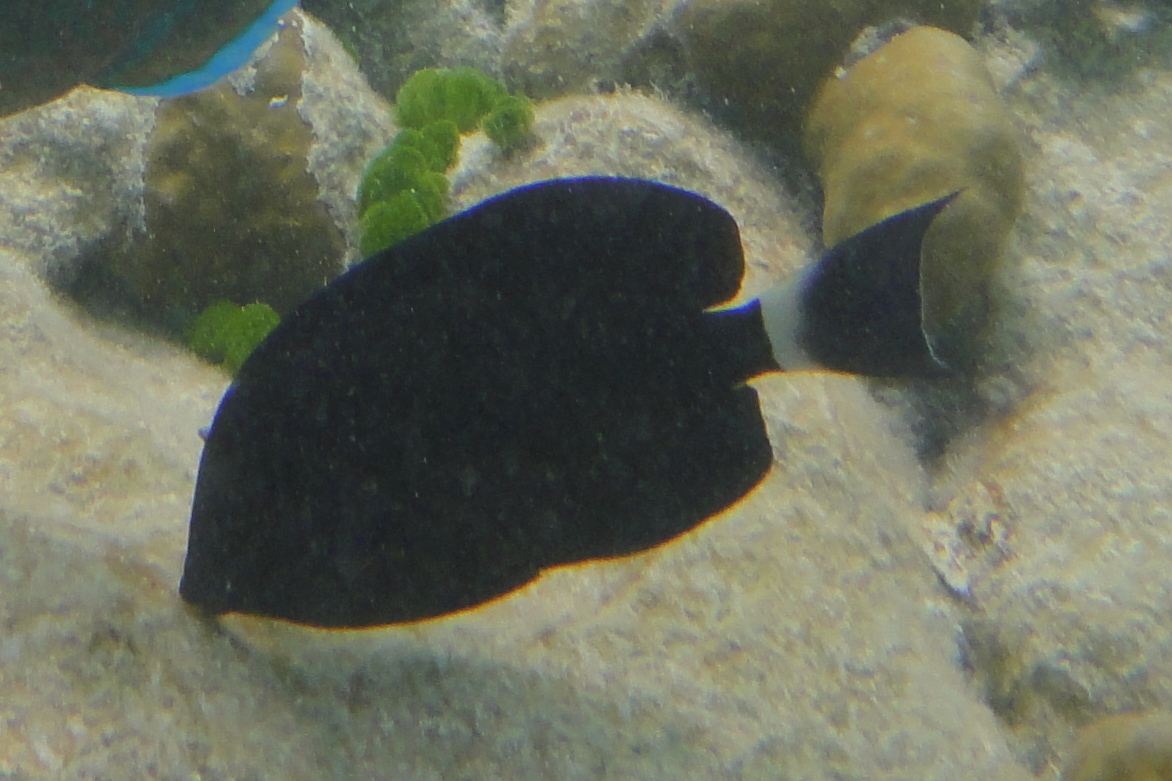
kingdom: Animalia
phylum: Chordata
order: Perciformes
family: Acanthuridae
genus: Acanthurus
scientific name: Acanthurus blochii
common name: Blue-banded pualu
